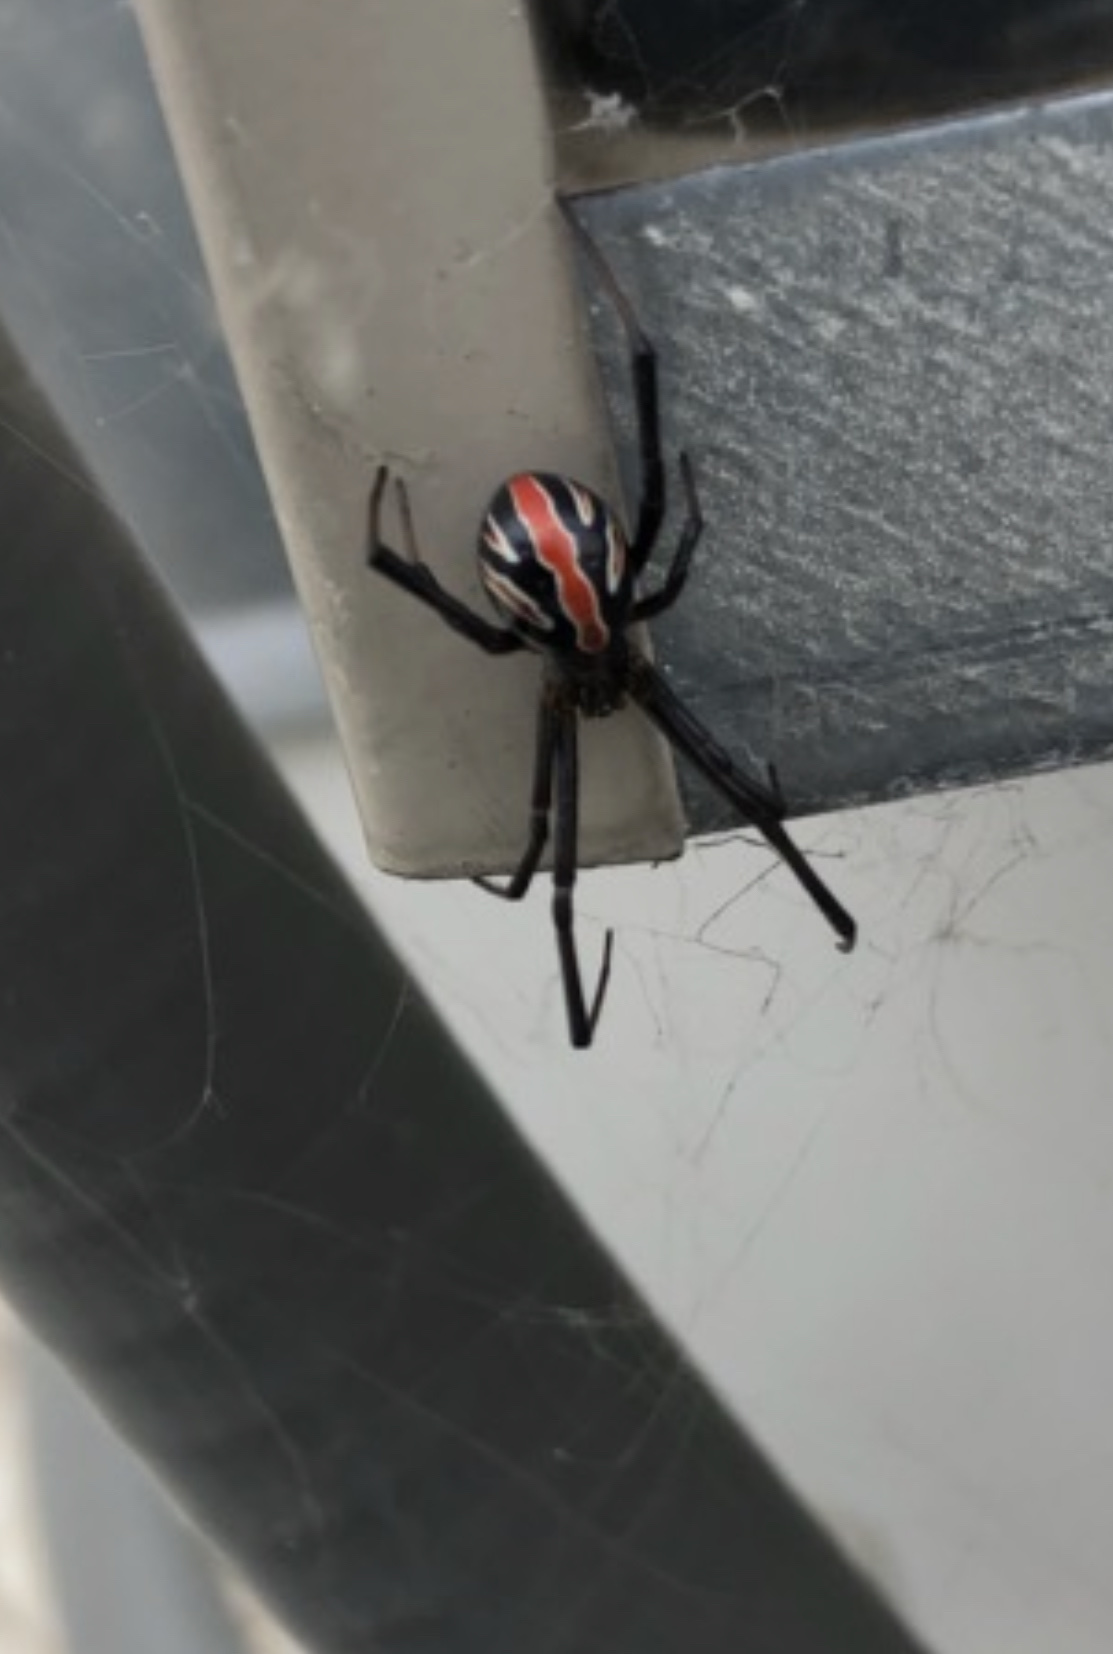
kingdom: Animalia
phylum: Arthropoda
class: Arachnida
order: Araneae
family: Theridiidae
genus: Latrodectus
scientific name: Latrodectus hesperus
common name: Western black widow
